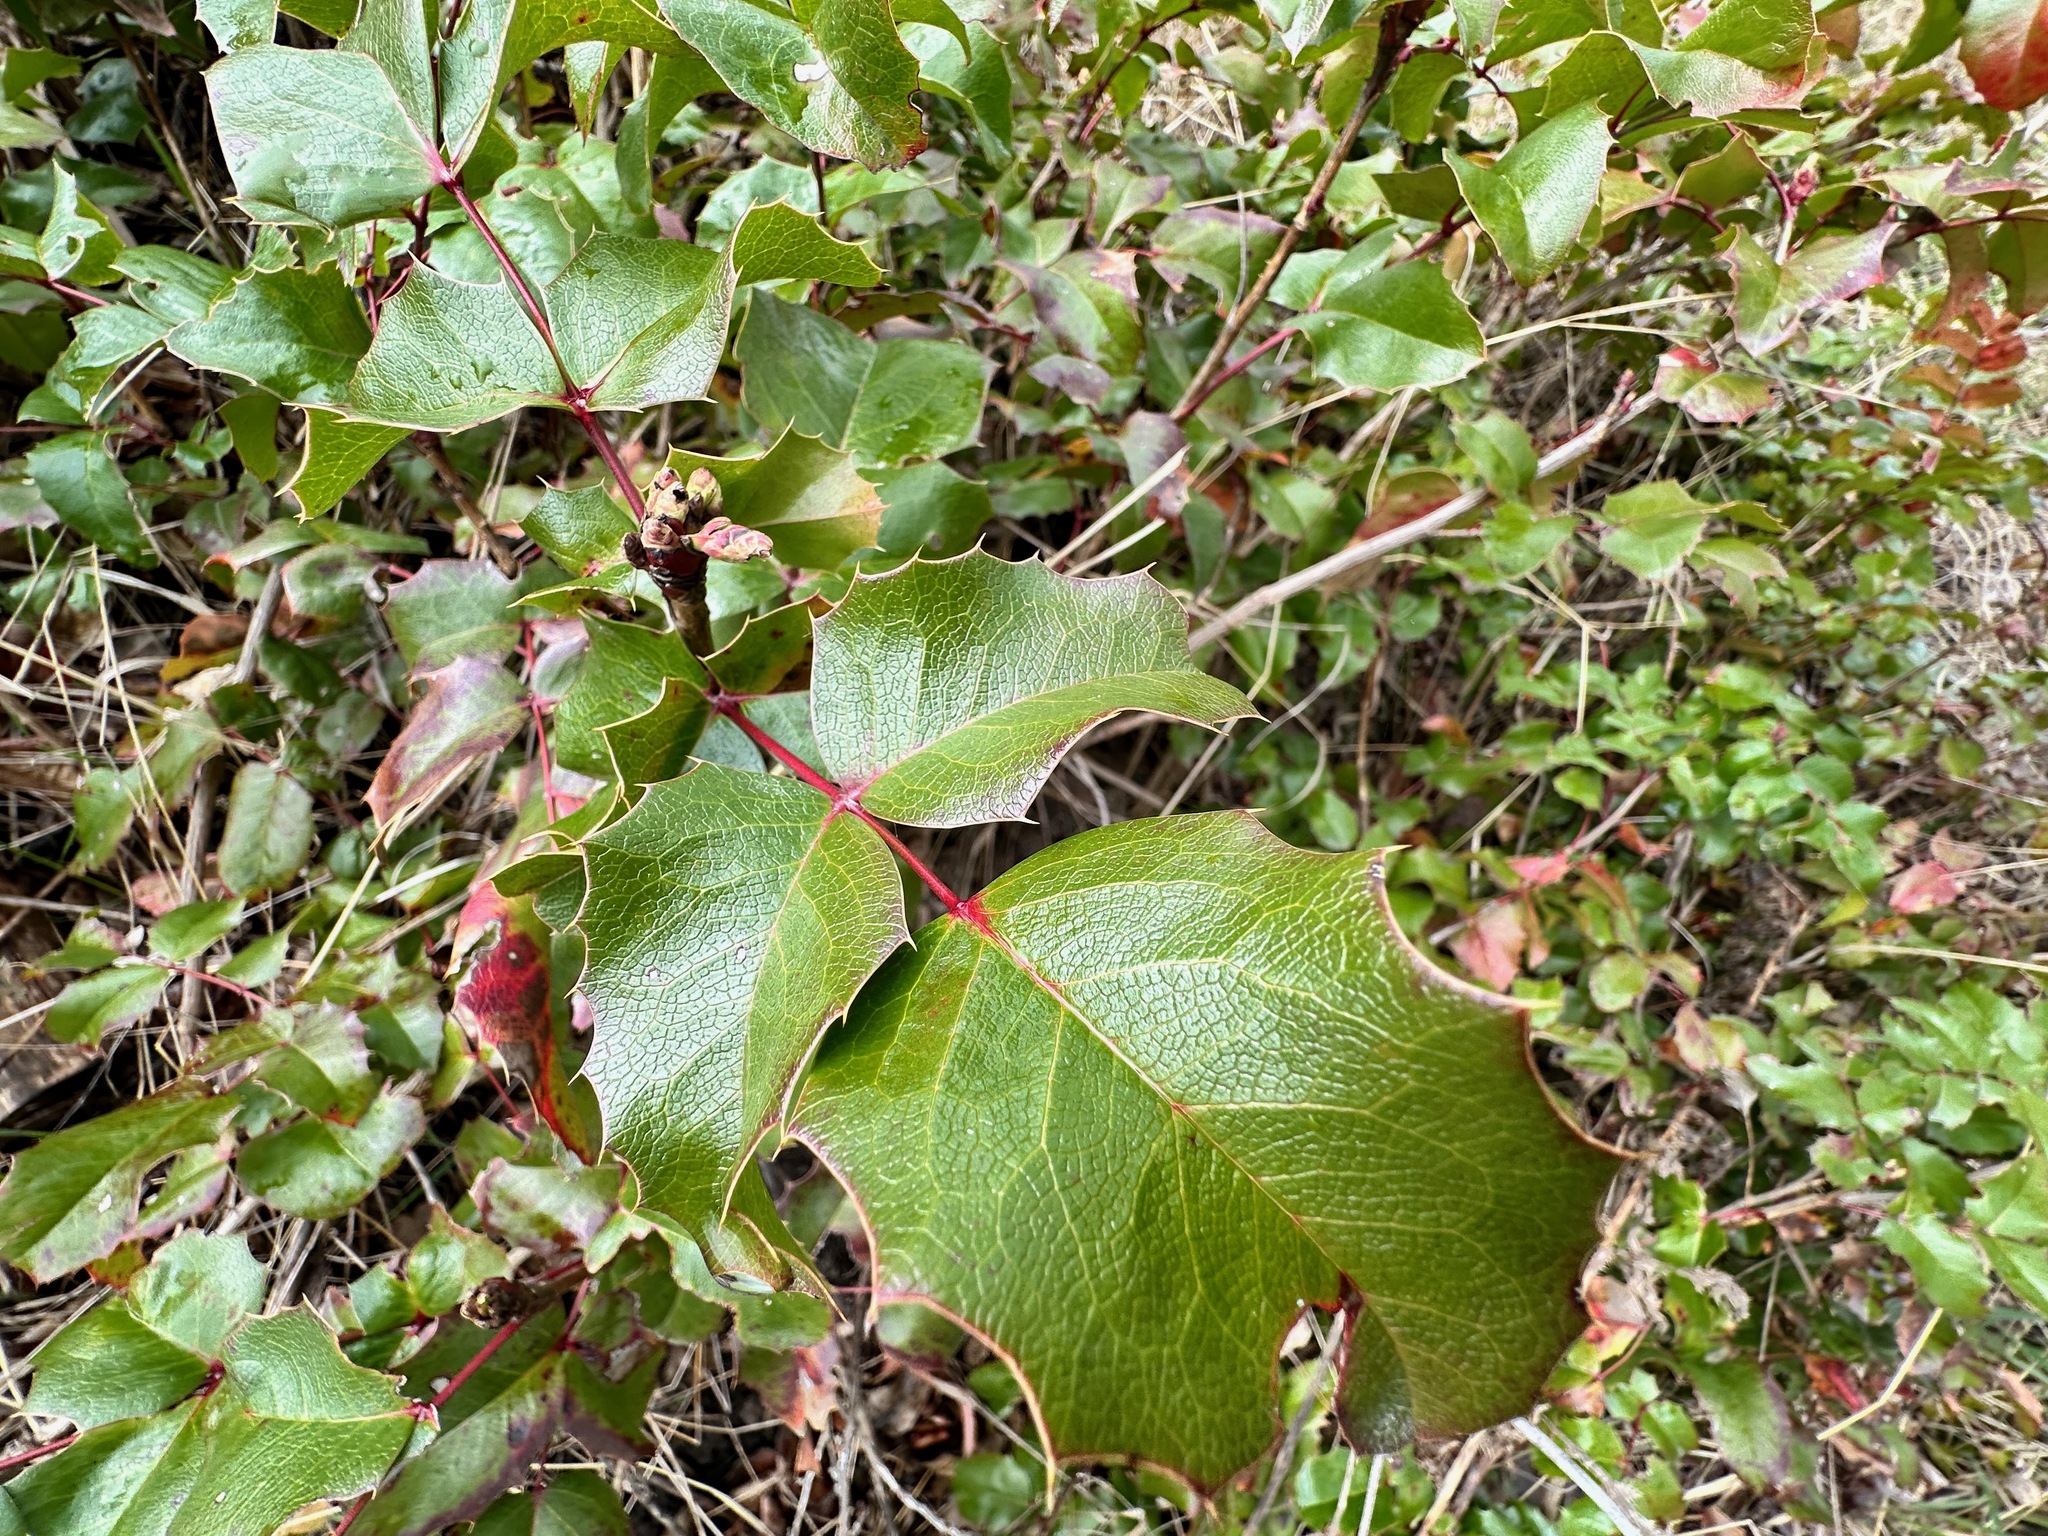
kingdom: Plantae
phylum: Tracheophyta
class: Magnoliopsida
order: Ranunculales
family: Berberidaceae
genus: Mahonia
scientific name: Mahonia aquifolium
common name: Oregon-grape
